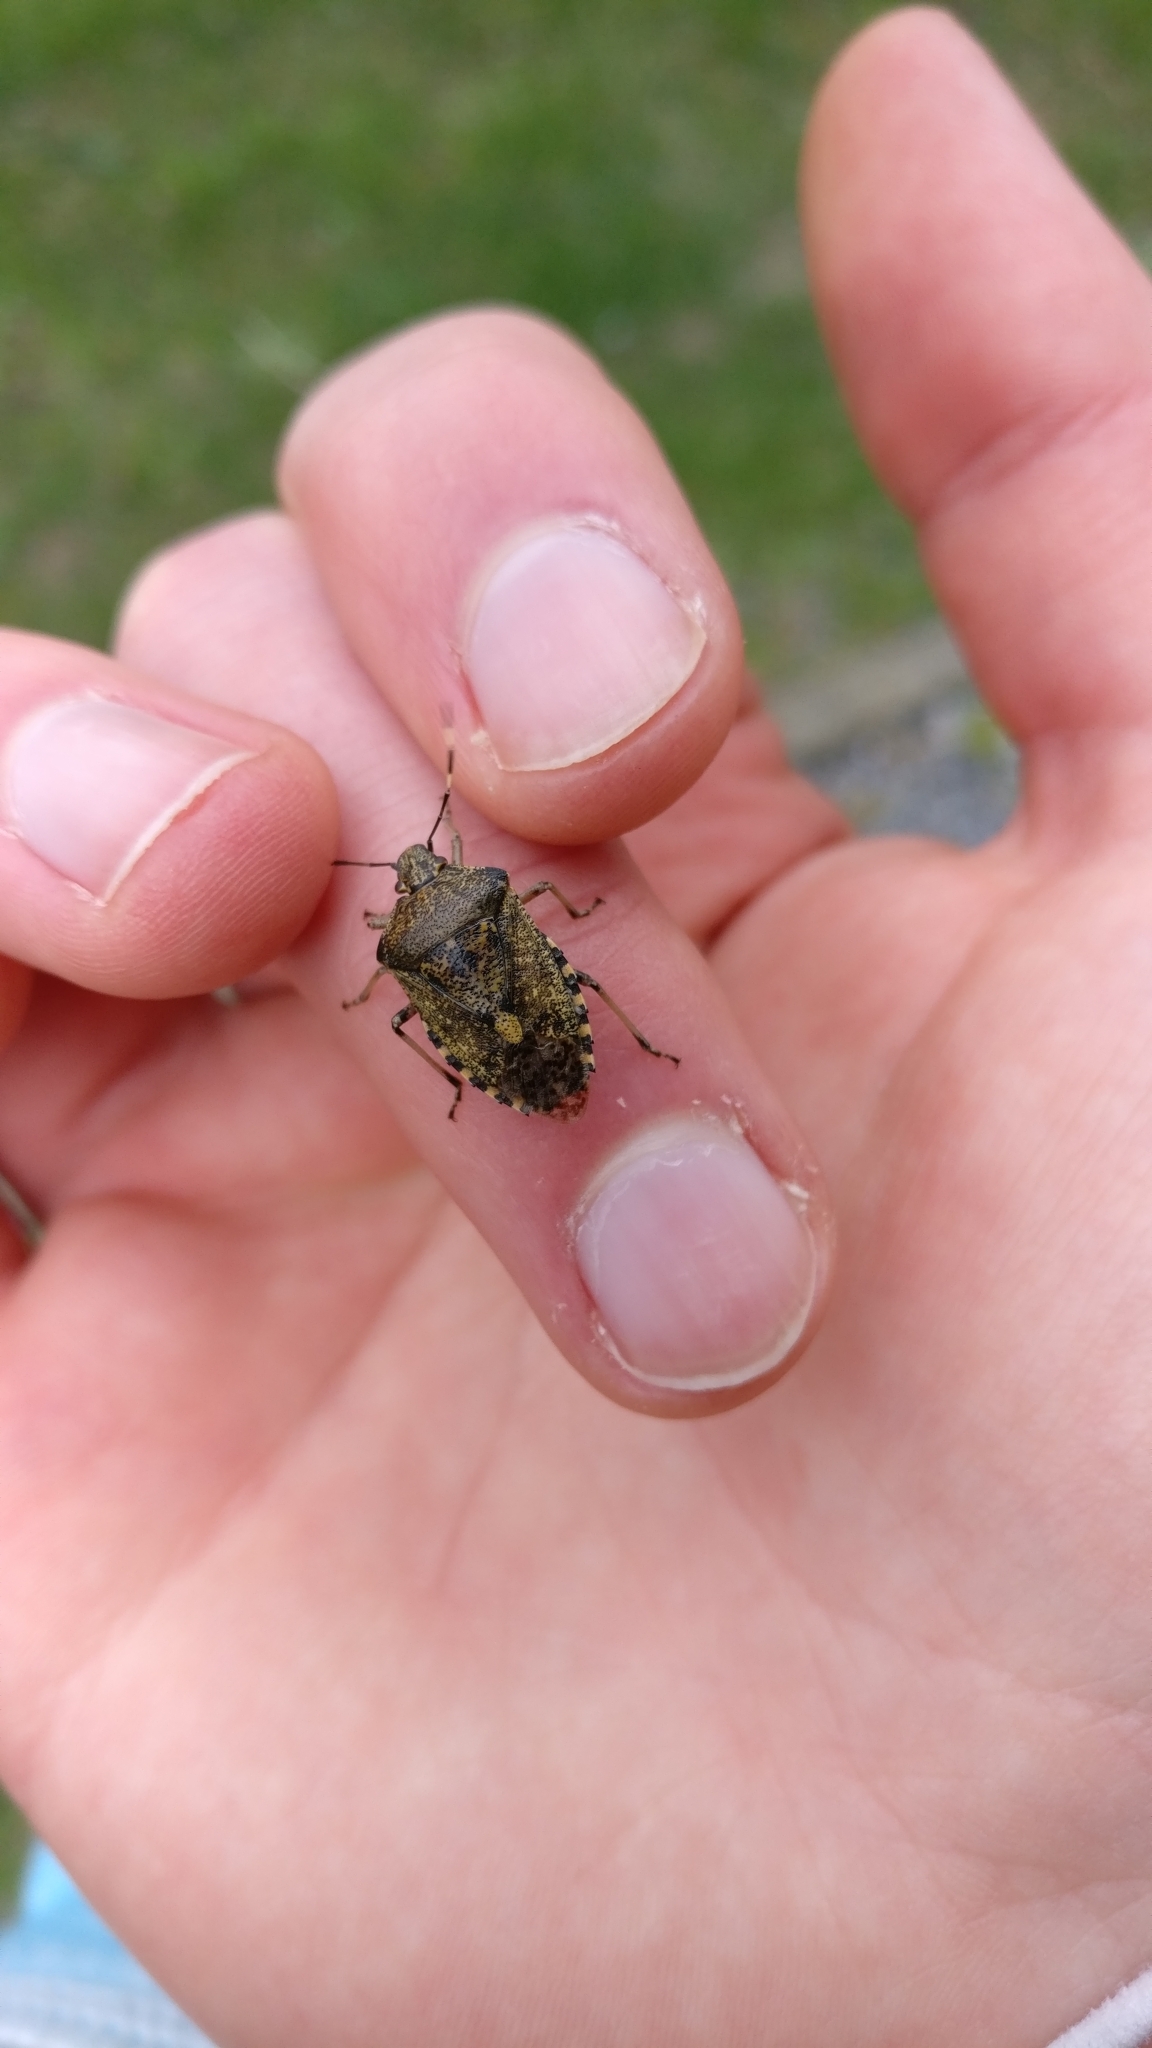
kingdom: Animalia
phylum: Arthropoda
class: Insecta
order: Hemiptera
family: Pentatomidae
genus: Rhaphigaster
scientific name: Rhaphigaster nebulosa
